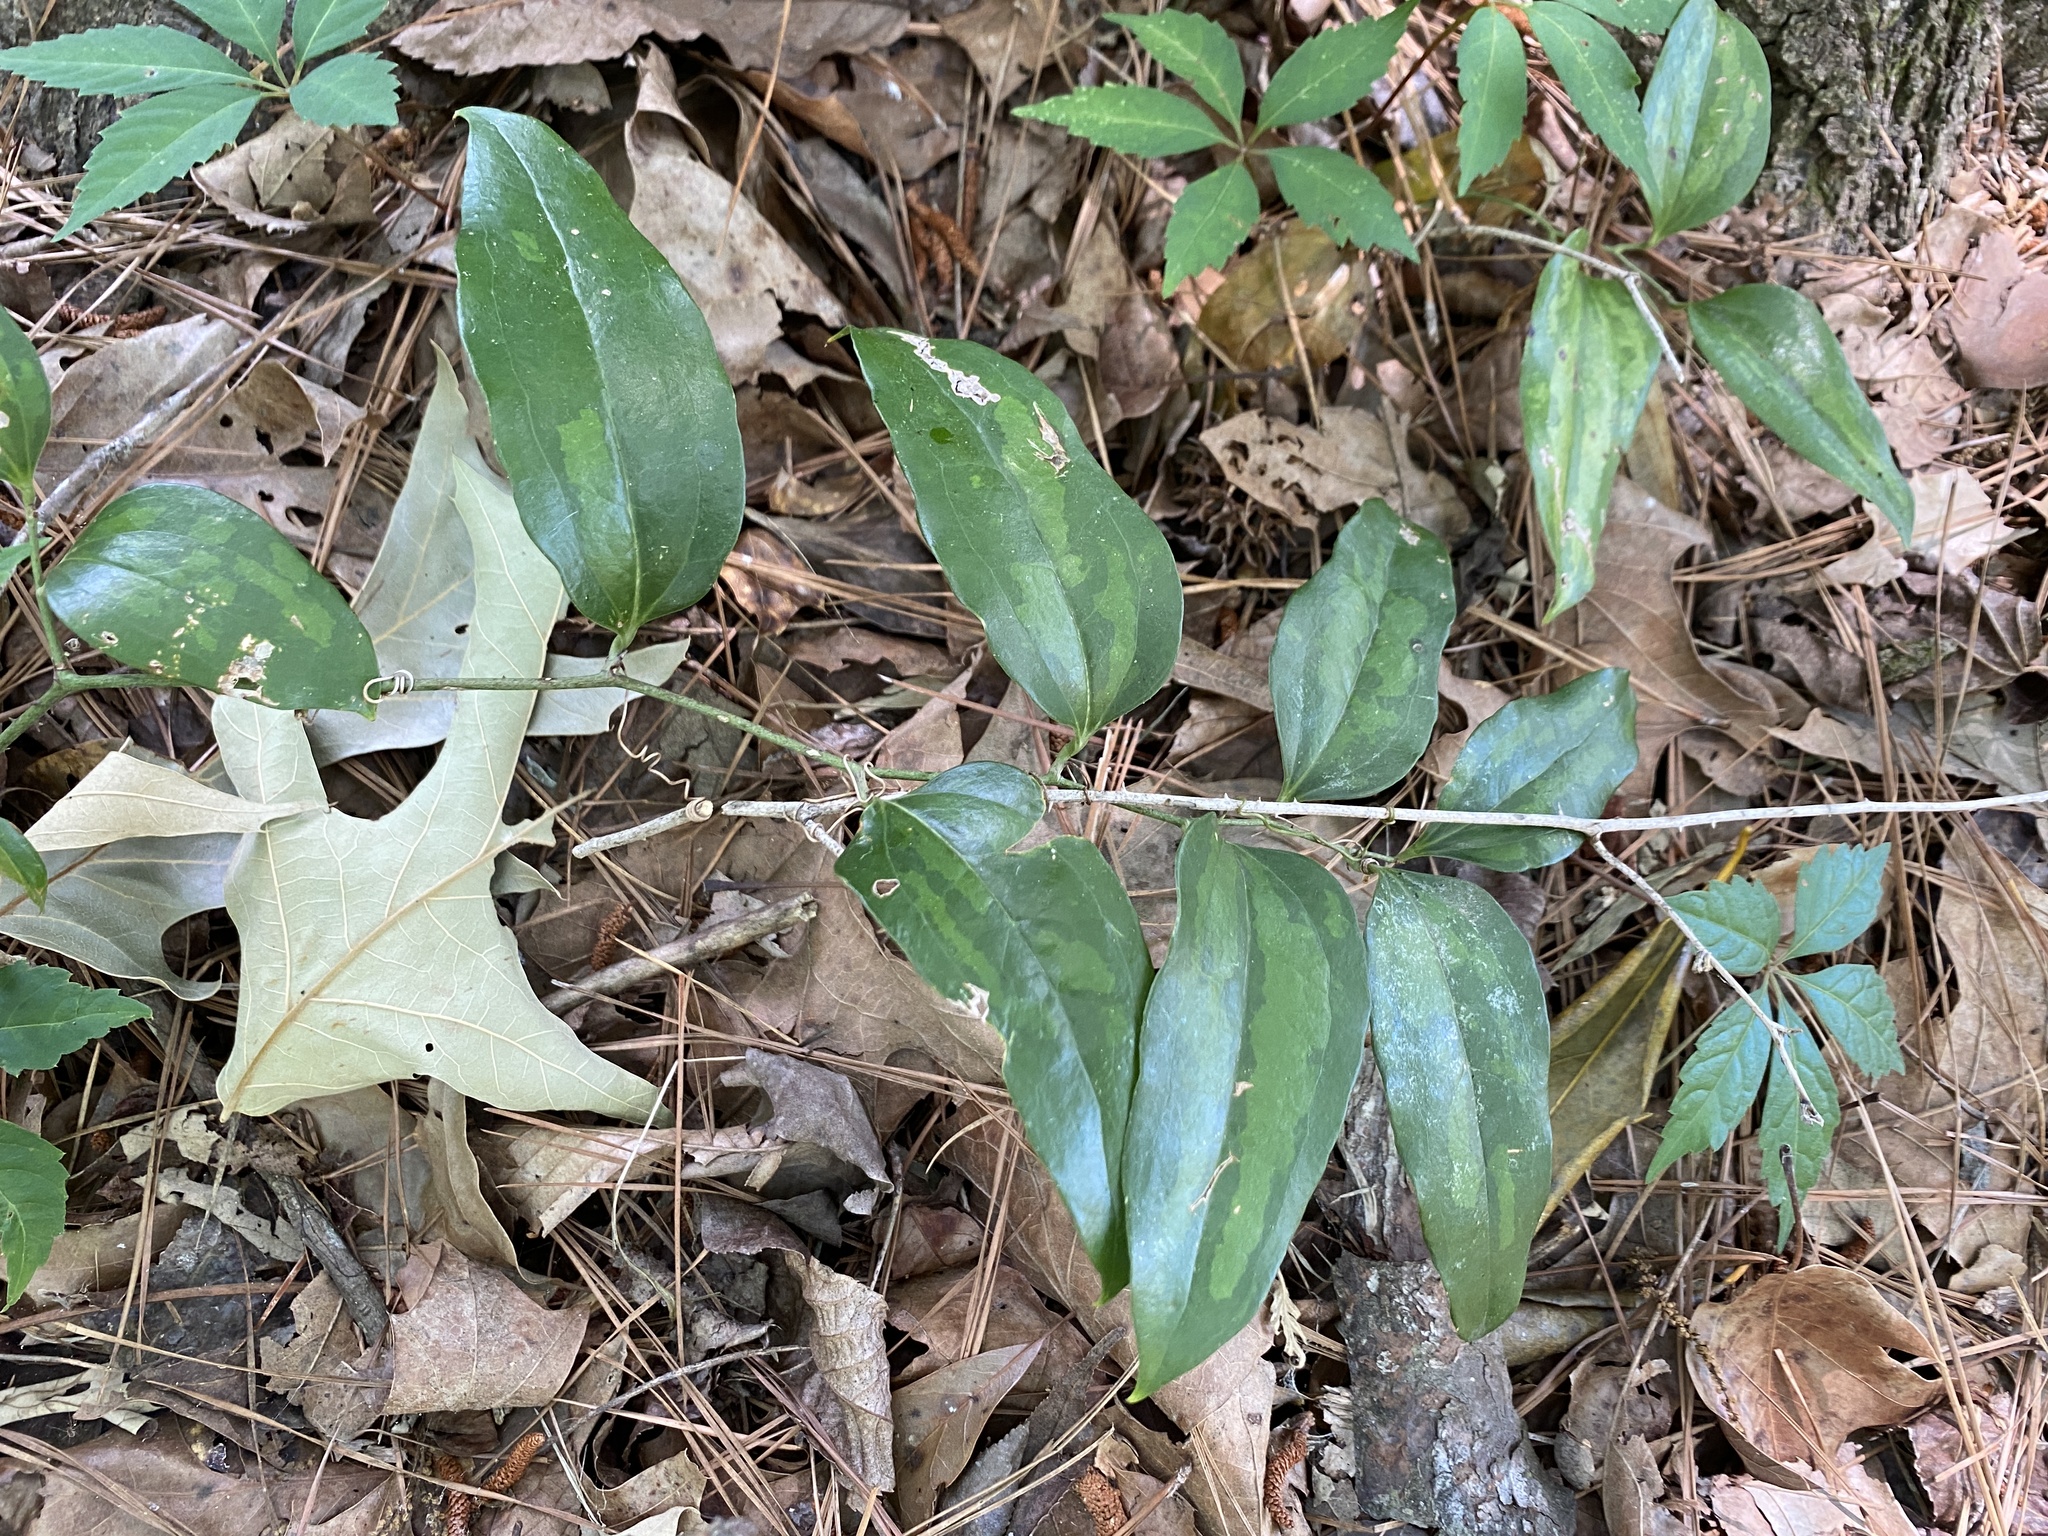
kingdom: Plantae
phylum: Tracheophyta
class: Liliopsida
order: Liliales
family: Smilacaceae
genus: Smilax
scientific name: Smilax maritima
